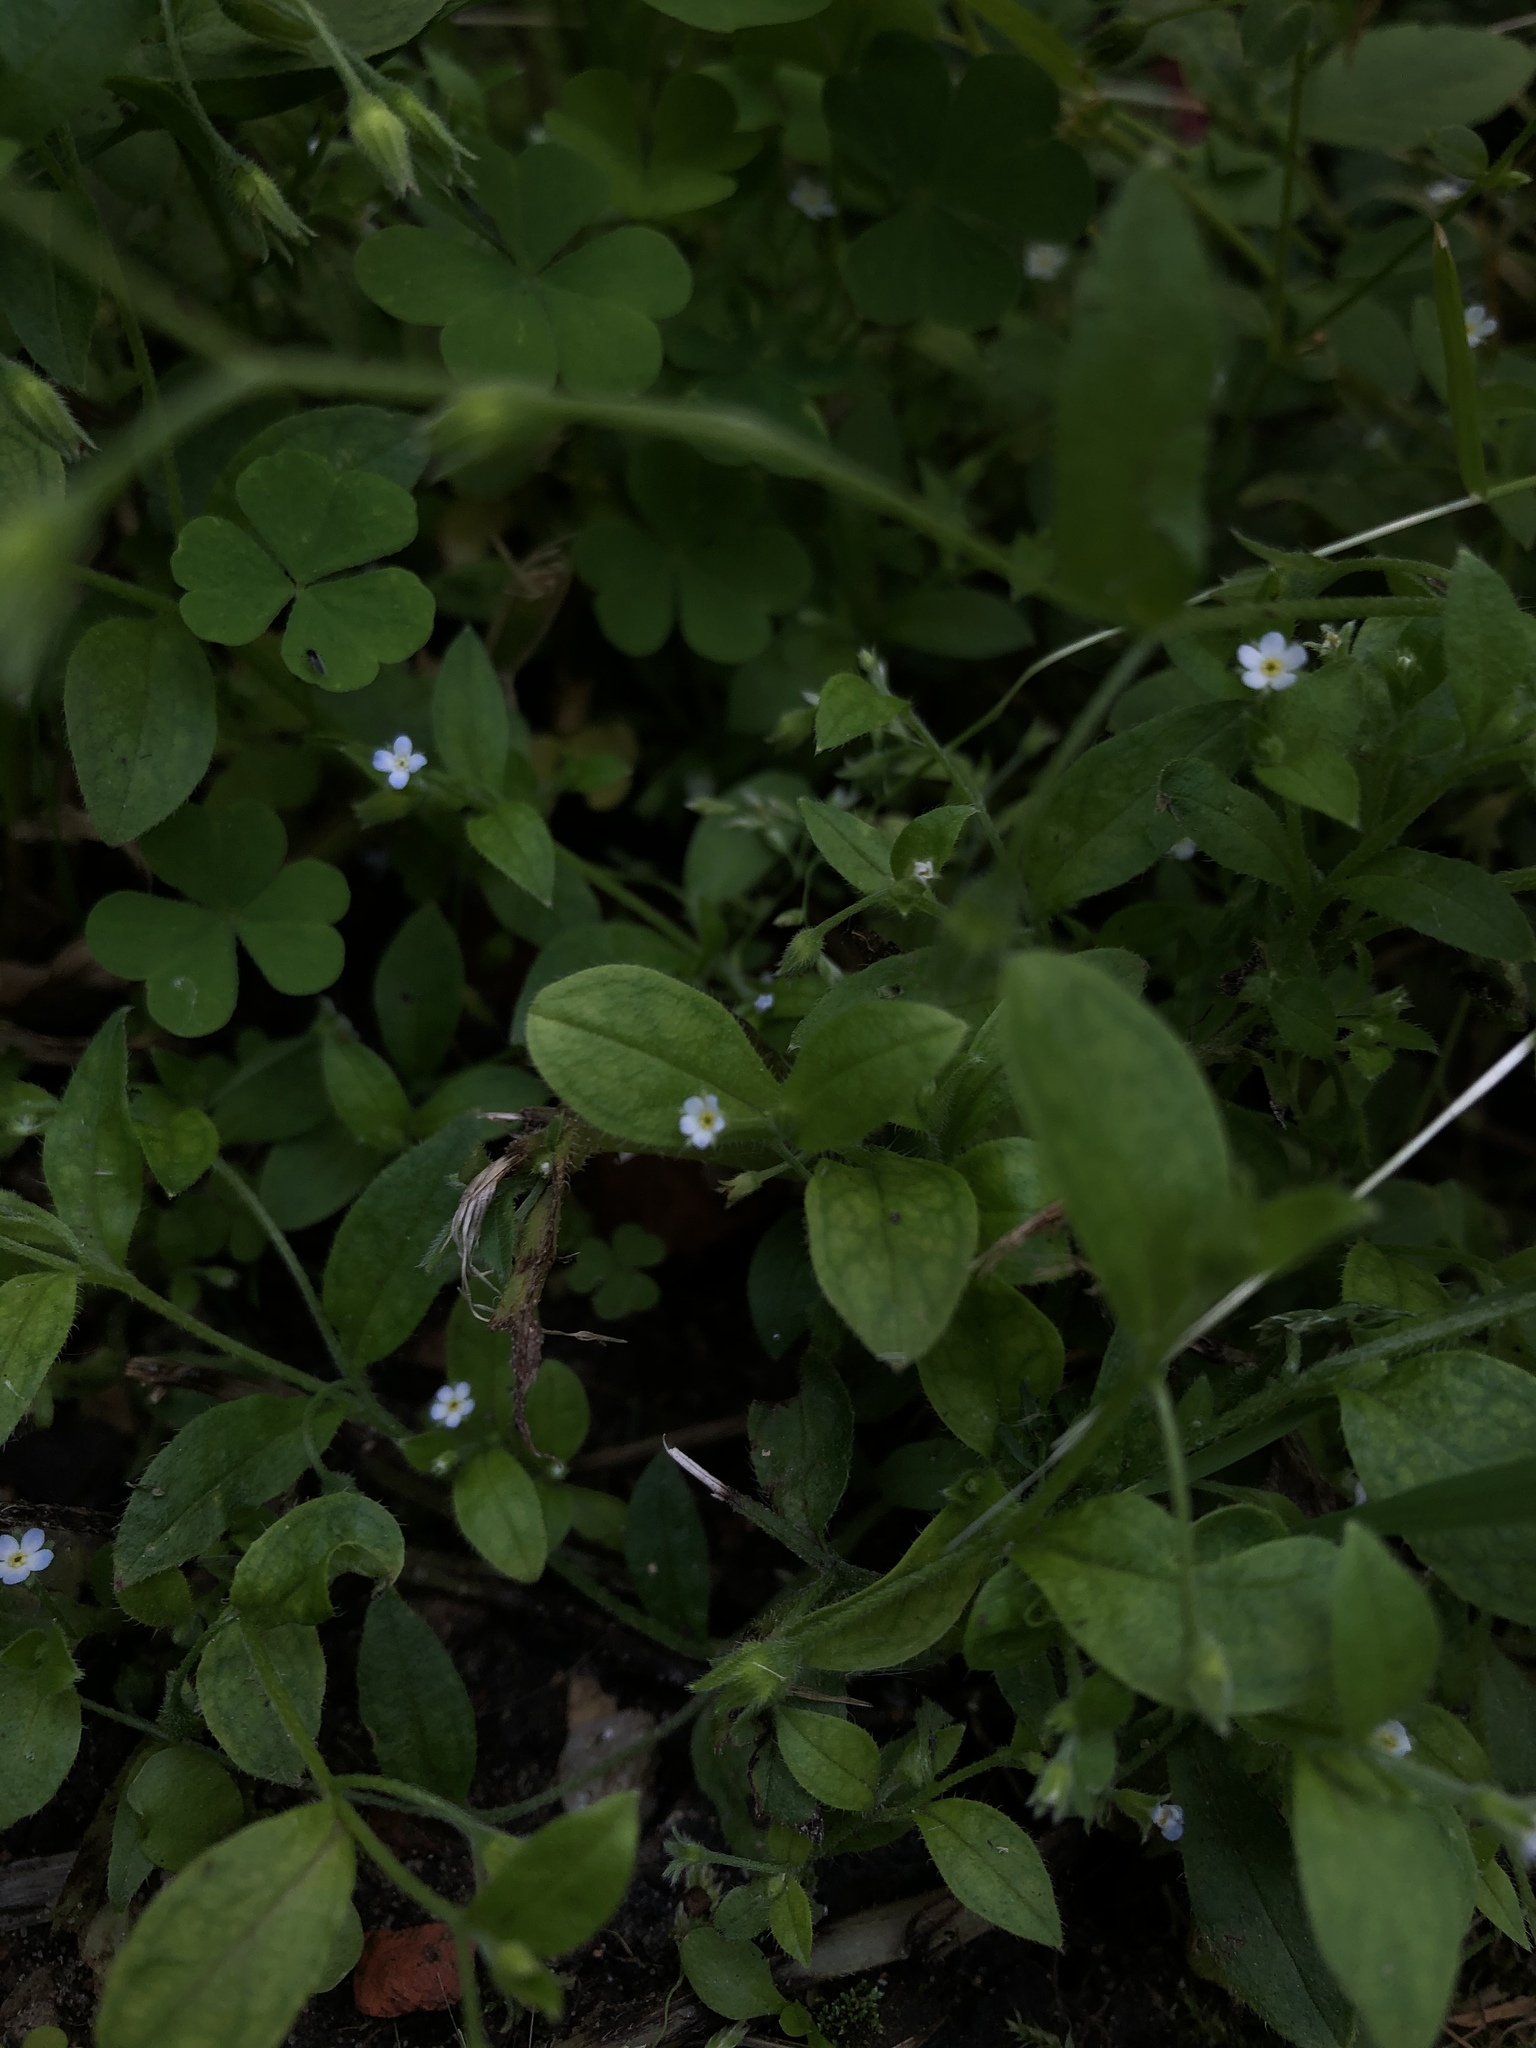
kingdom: Plantae
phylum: Tracheophyta
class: Magnoliopsida
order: Boraginales
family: Boraginaceae
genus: Myosotis
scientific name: Myosotis sparsiflora
